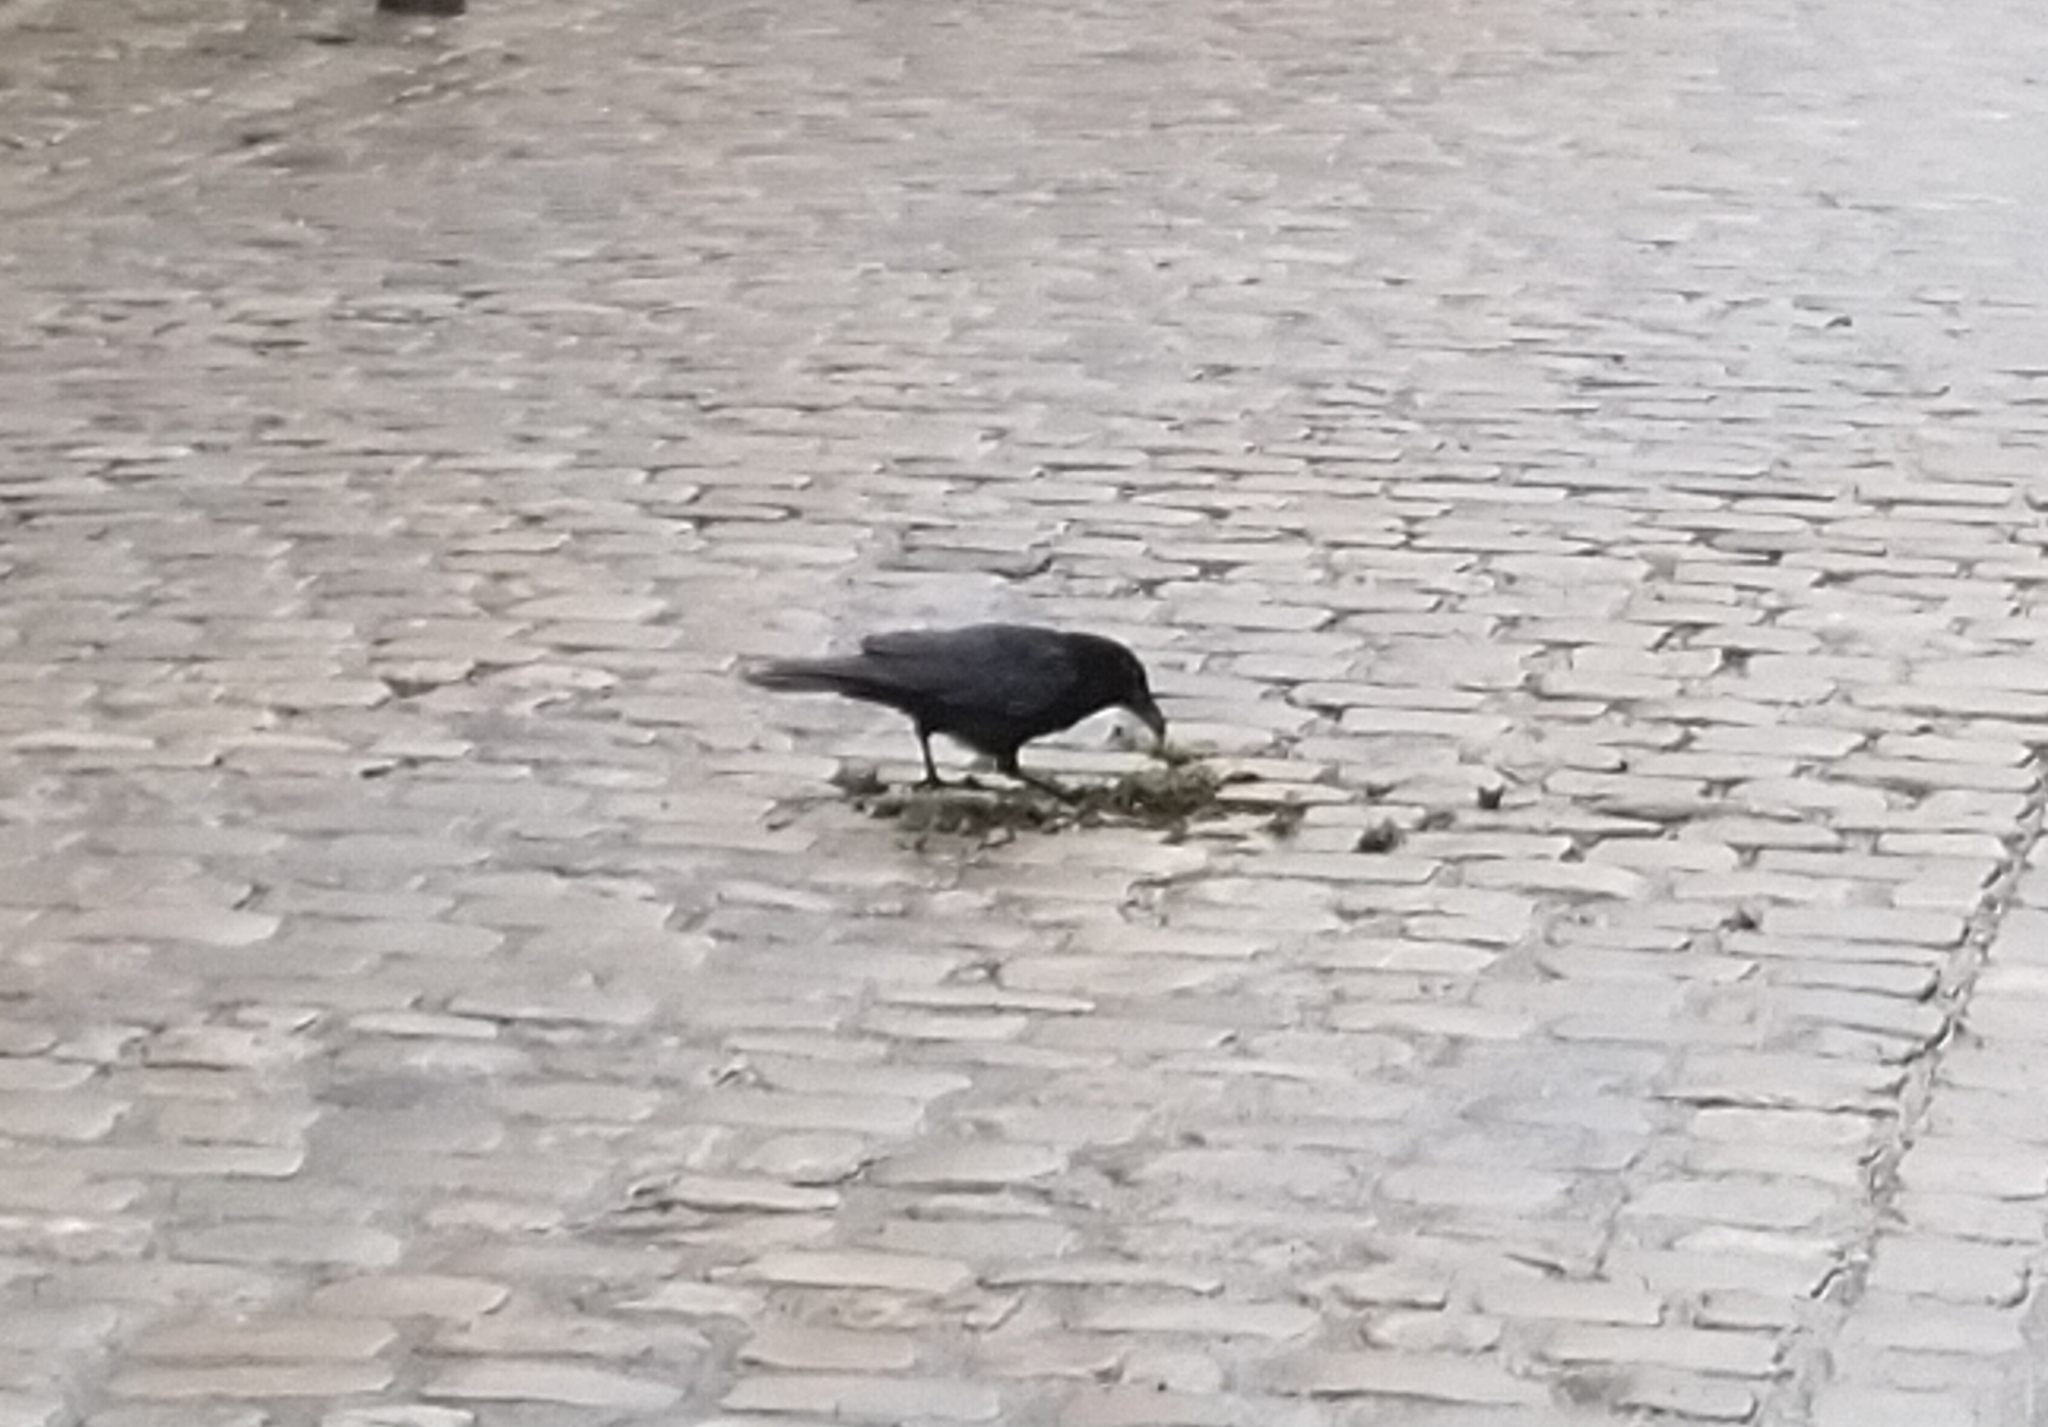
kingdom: Animalia
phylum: Chordata
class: Aves
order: Passeriformes
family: Corvidae
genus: Corvus
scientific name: Corvus corone
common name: Carrion crow
